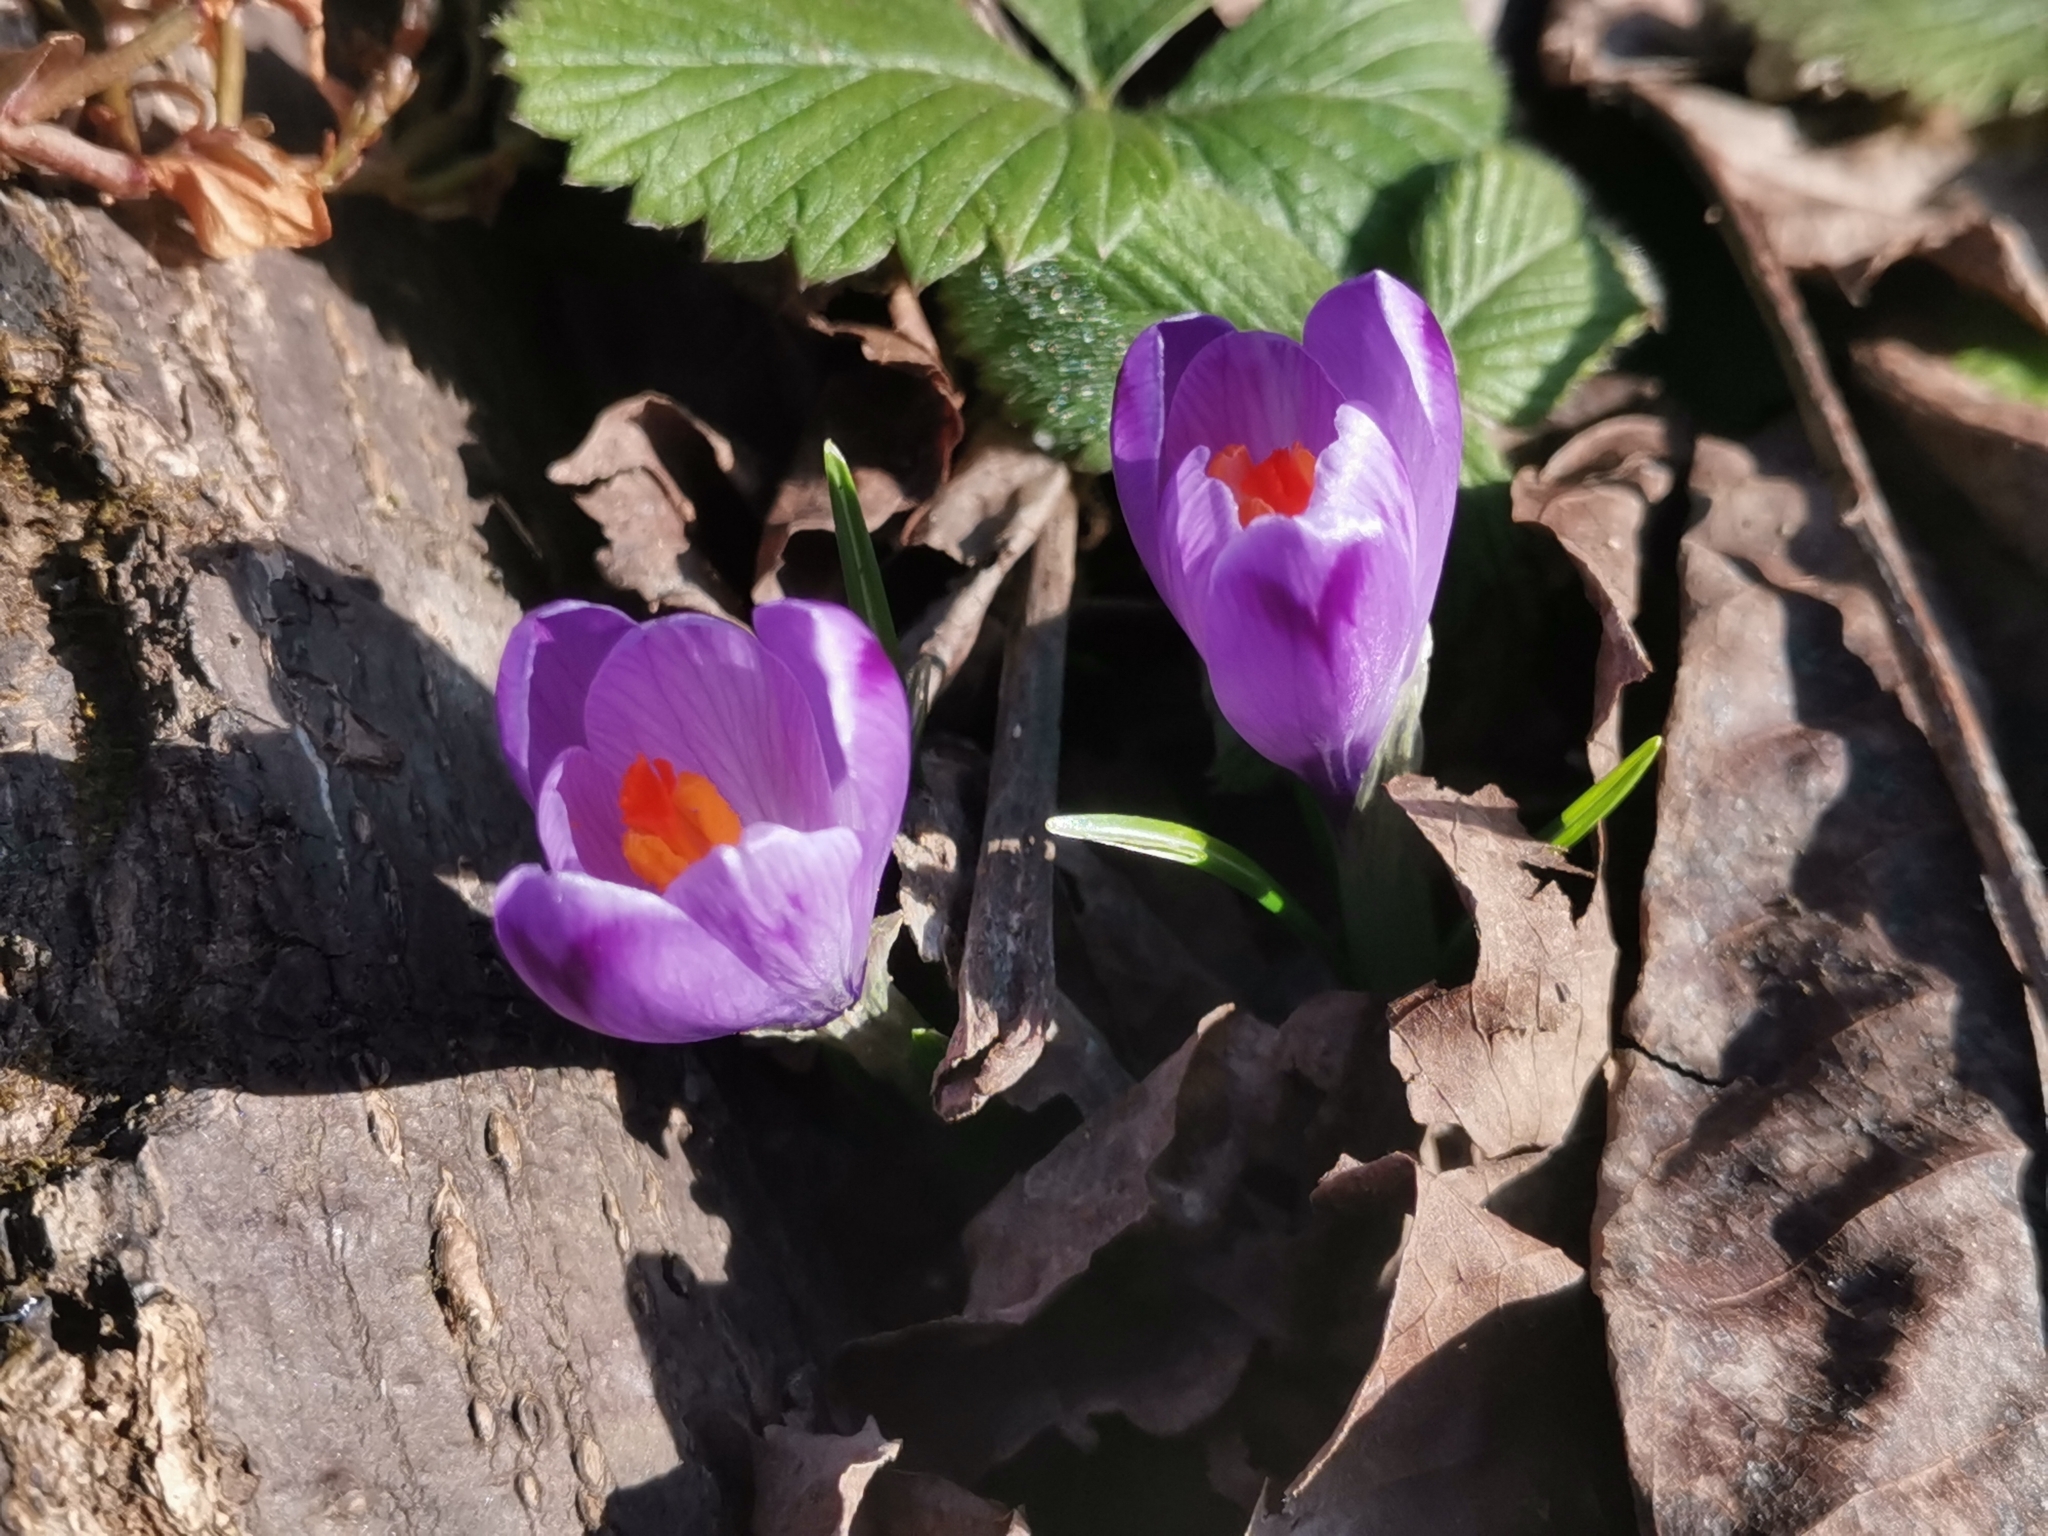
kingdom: Plantae
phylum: Tracheophyta
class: Liliopsida
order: Asparagales
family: Iridaceae
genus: Crocus
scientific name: Crocus heuffelianus
